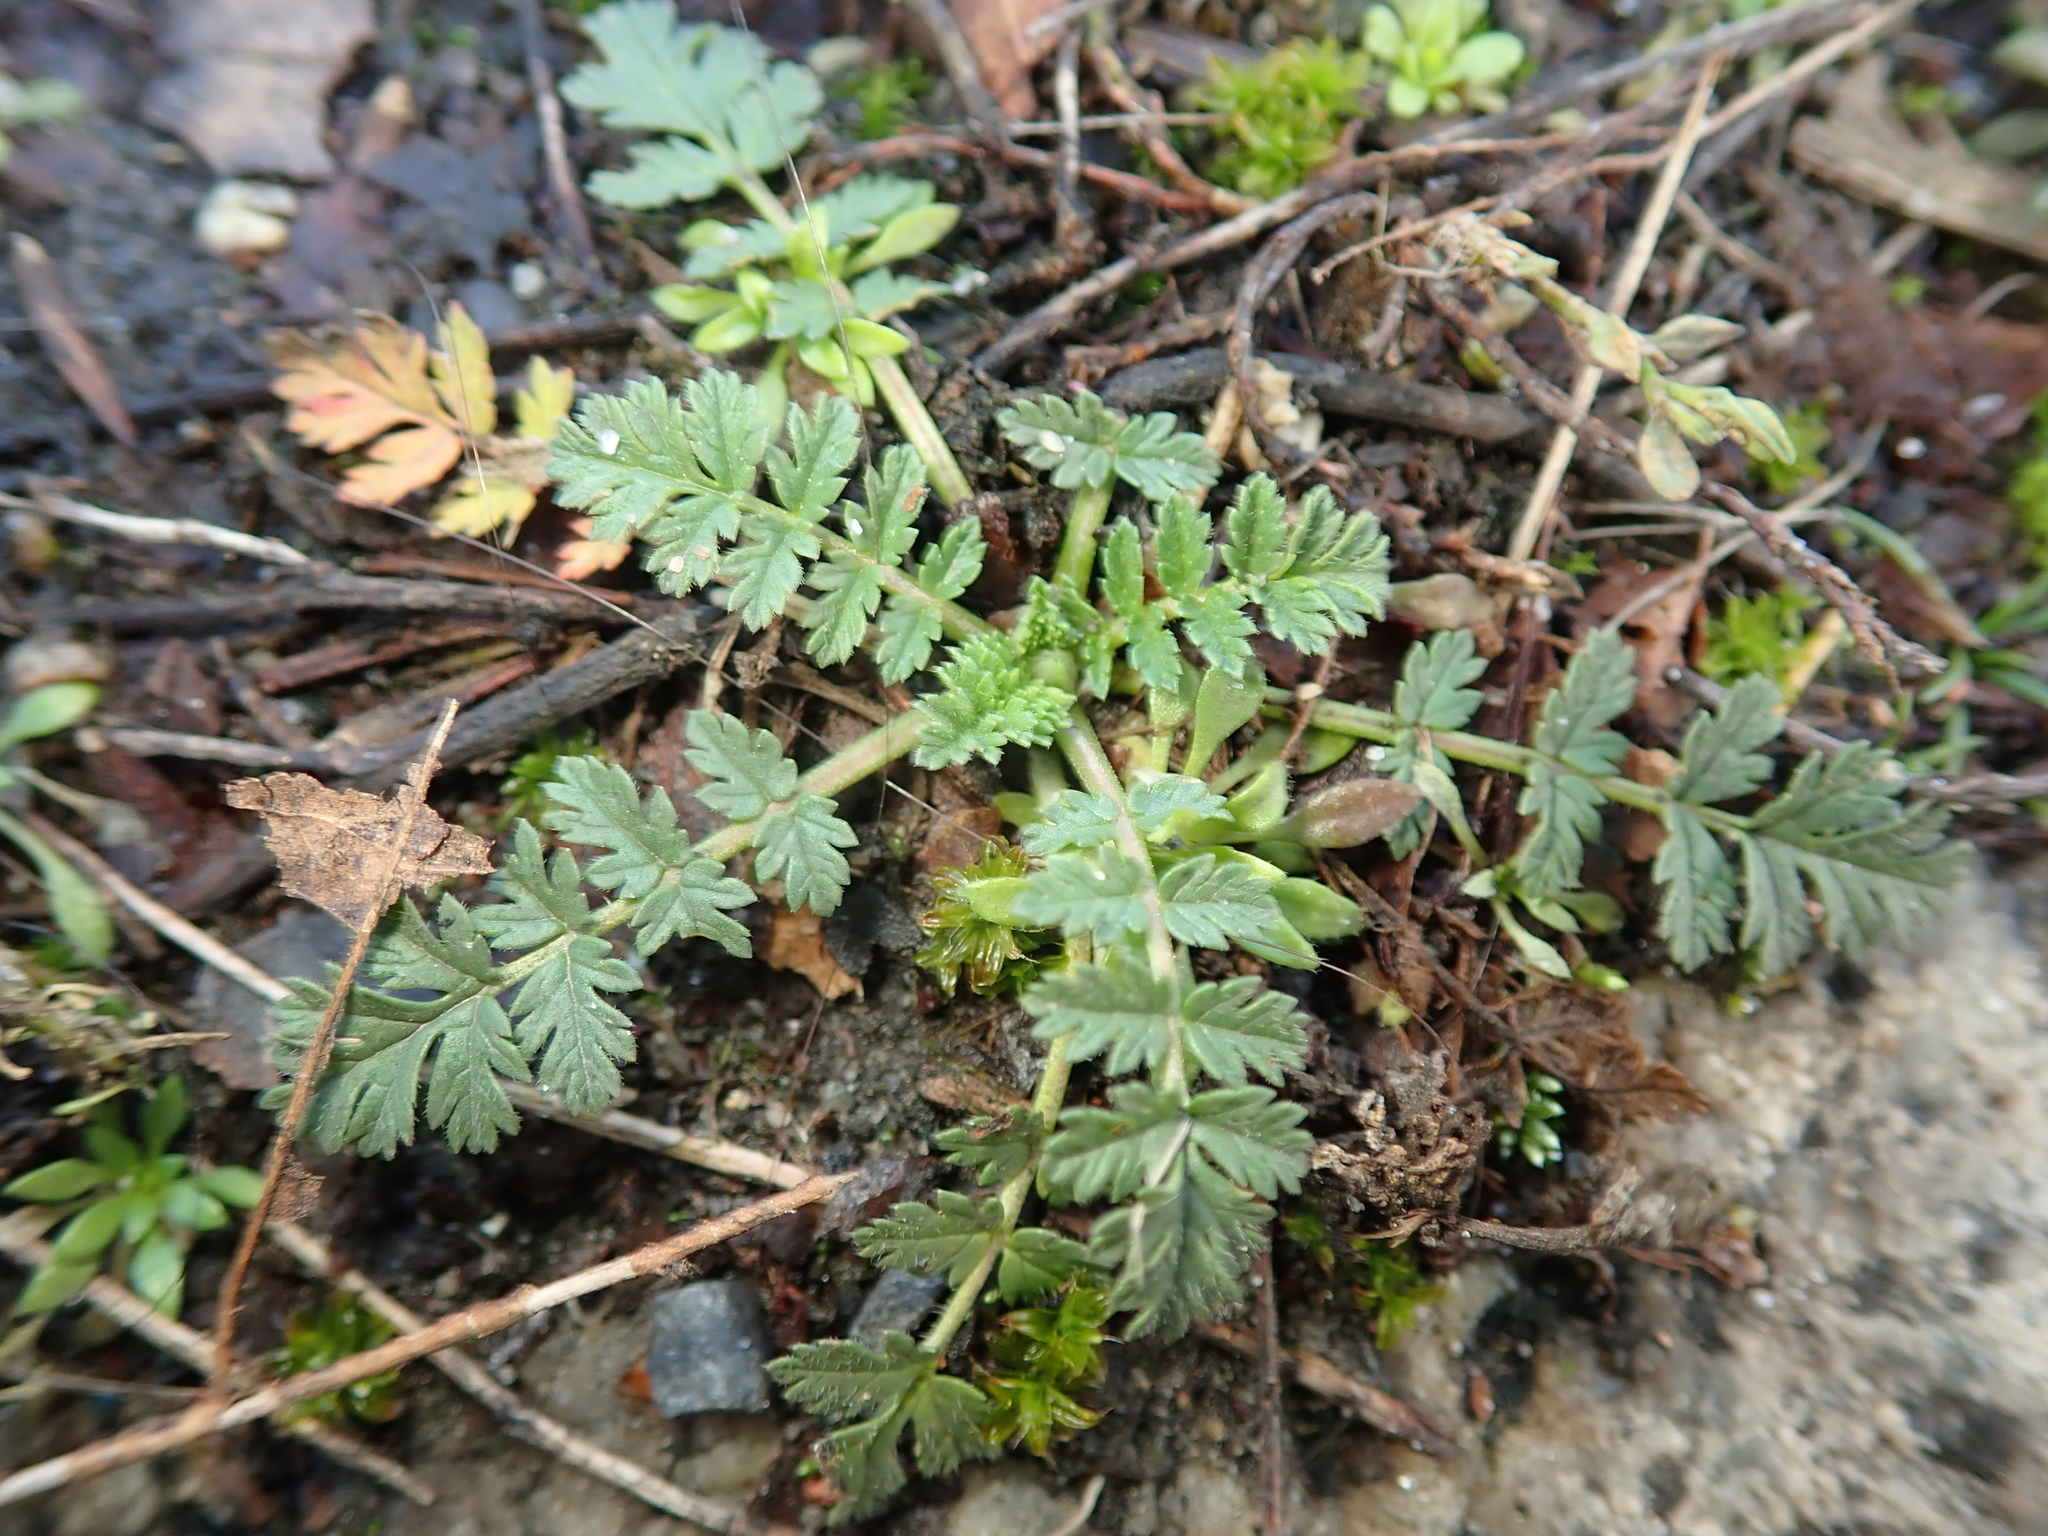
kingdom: Plantae
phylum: Tracheophyta
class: Magnoliopsida
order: Geraniales
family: Geraniaceae
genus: Erodium
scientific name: Erodium cicutarium
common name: Common stork's-bill
